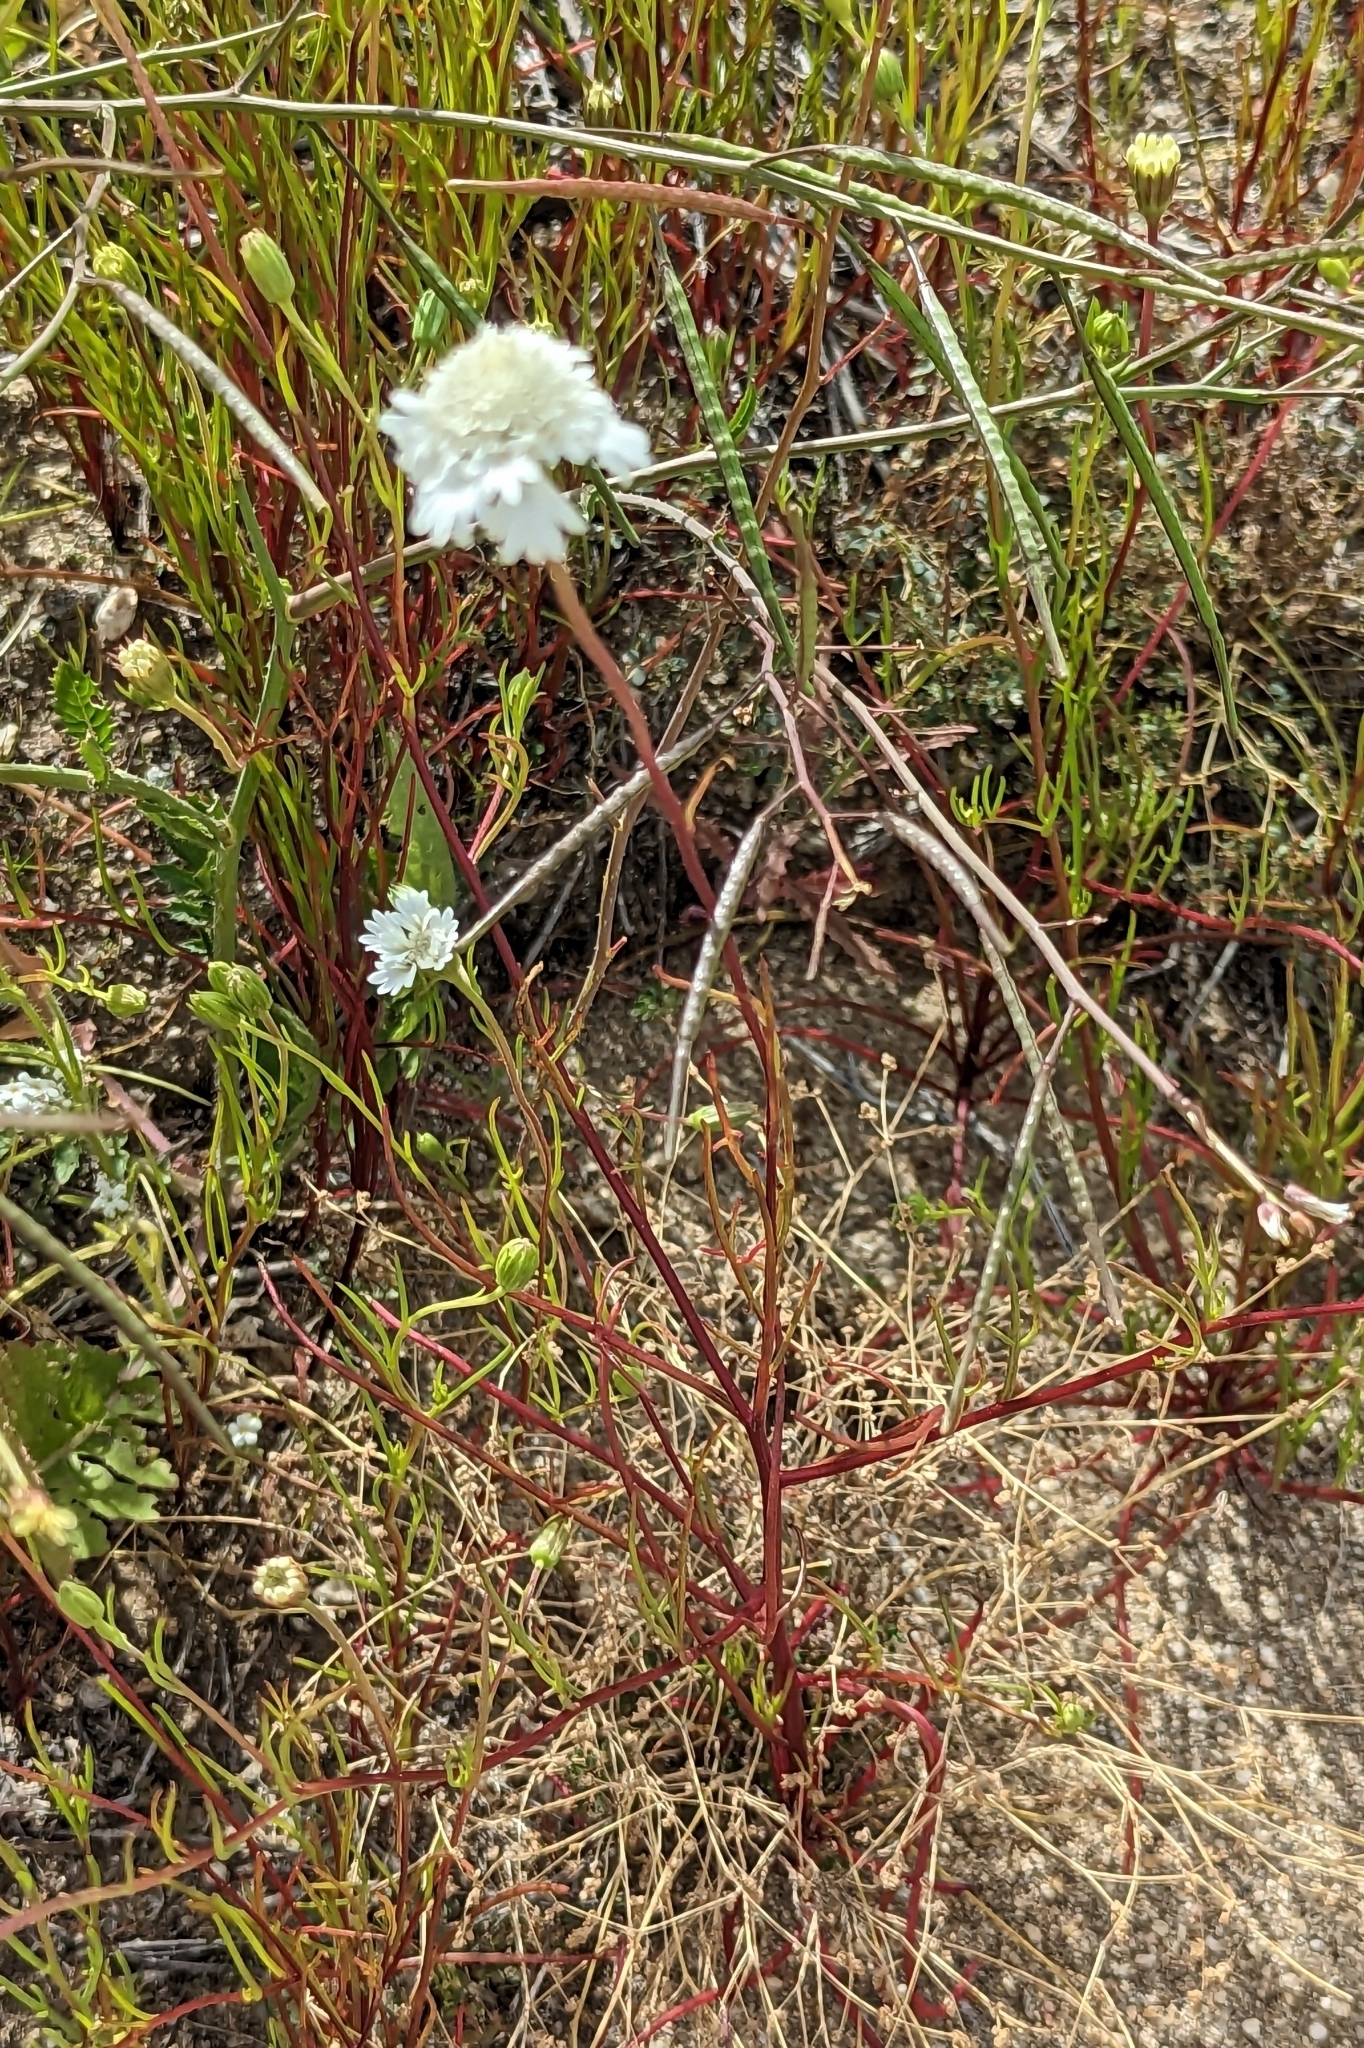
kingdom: Plantae
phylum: Tracheophyta
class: Magnoliopsida
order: Asterales
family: Asteraceae
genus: Chaenactis
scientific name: Chaenactis fremontii
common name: Fremont pincushion
